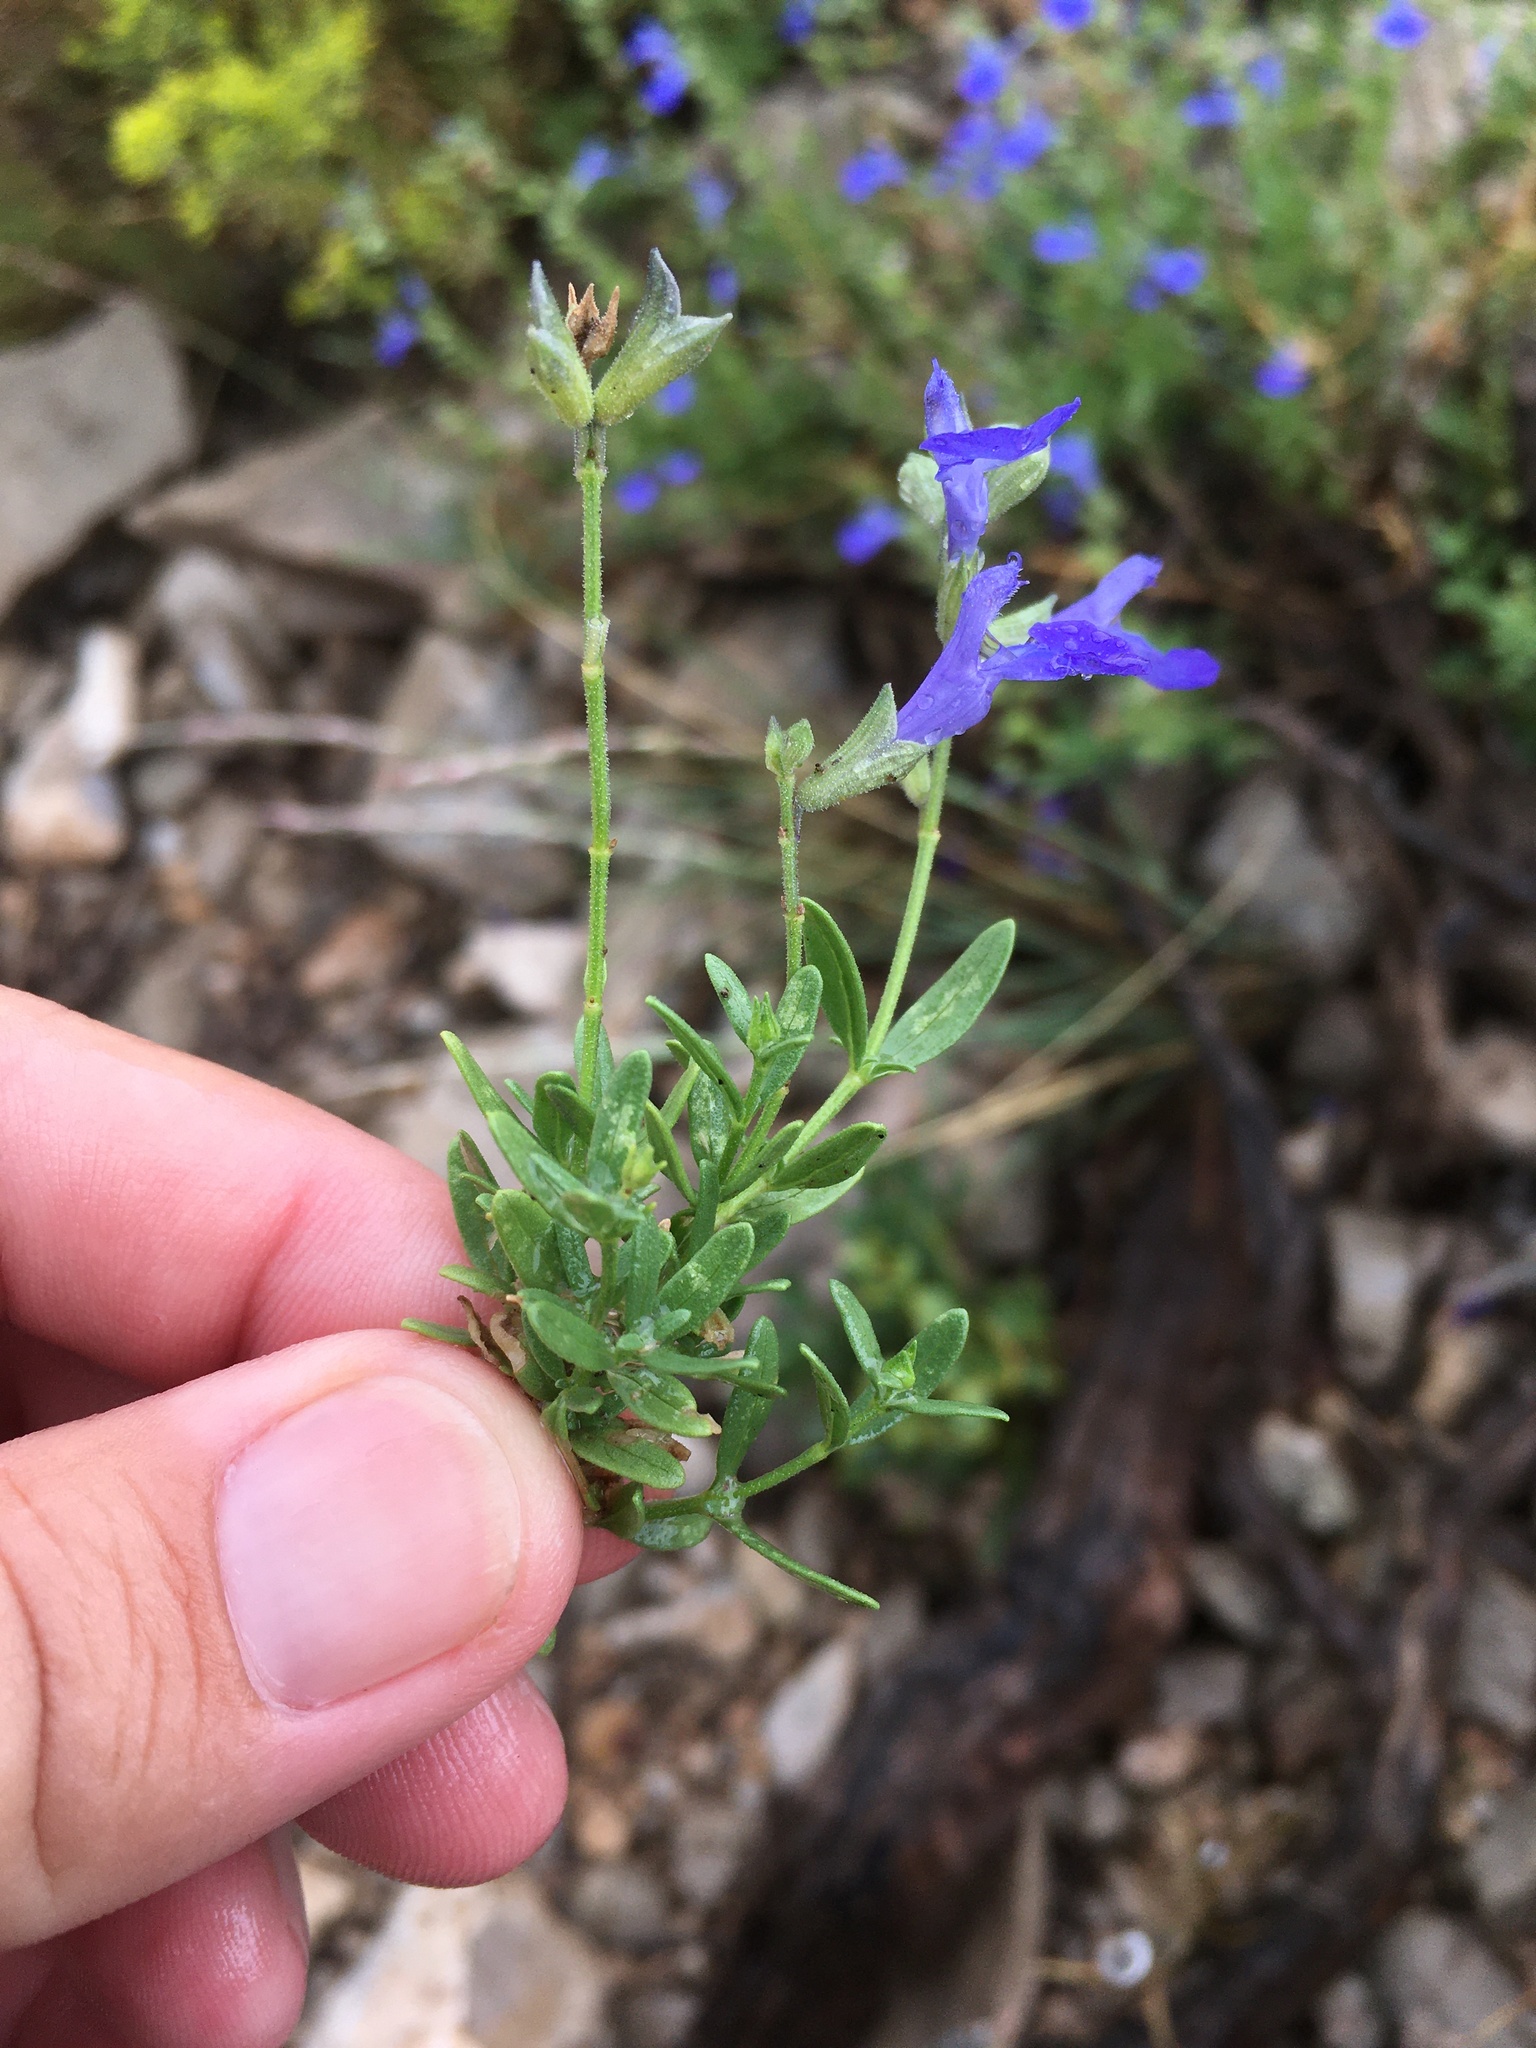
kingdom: Plantae
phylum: Tracheophyta
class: Magnoliopsida
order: Lamiales
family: Lamiaceae
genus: Salvia
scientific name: Salvia lycioides
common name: Canyon sage
